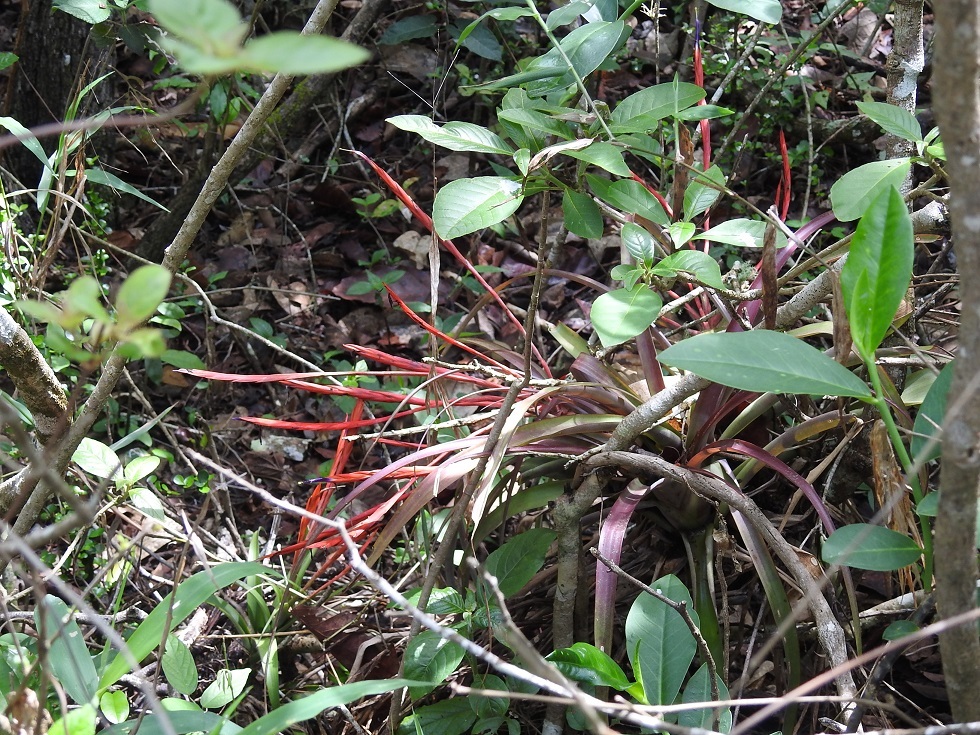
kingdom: Plantae
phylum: Tracheophyta
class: Liliopsida
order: Poales
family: Bromeliaceae
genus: Tillandsia
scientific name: Tillandsia flabellata
